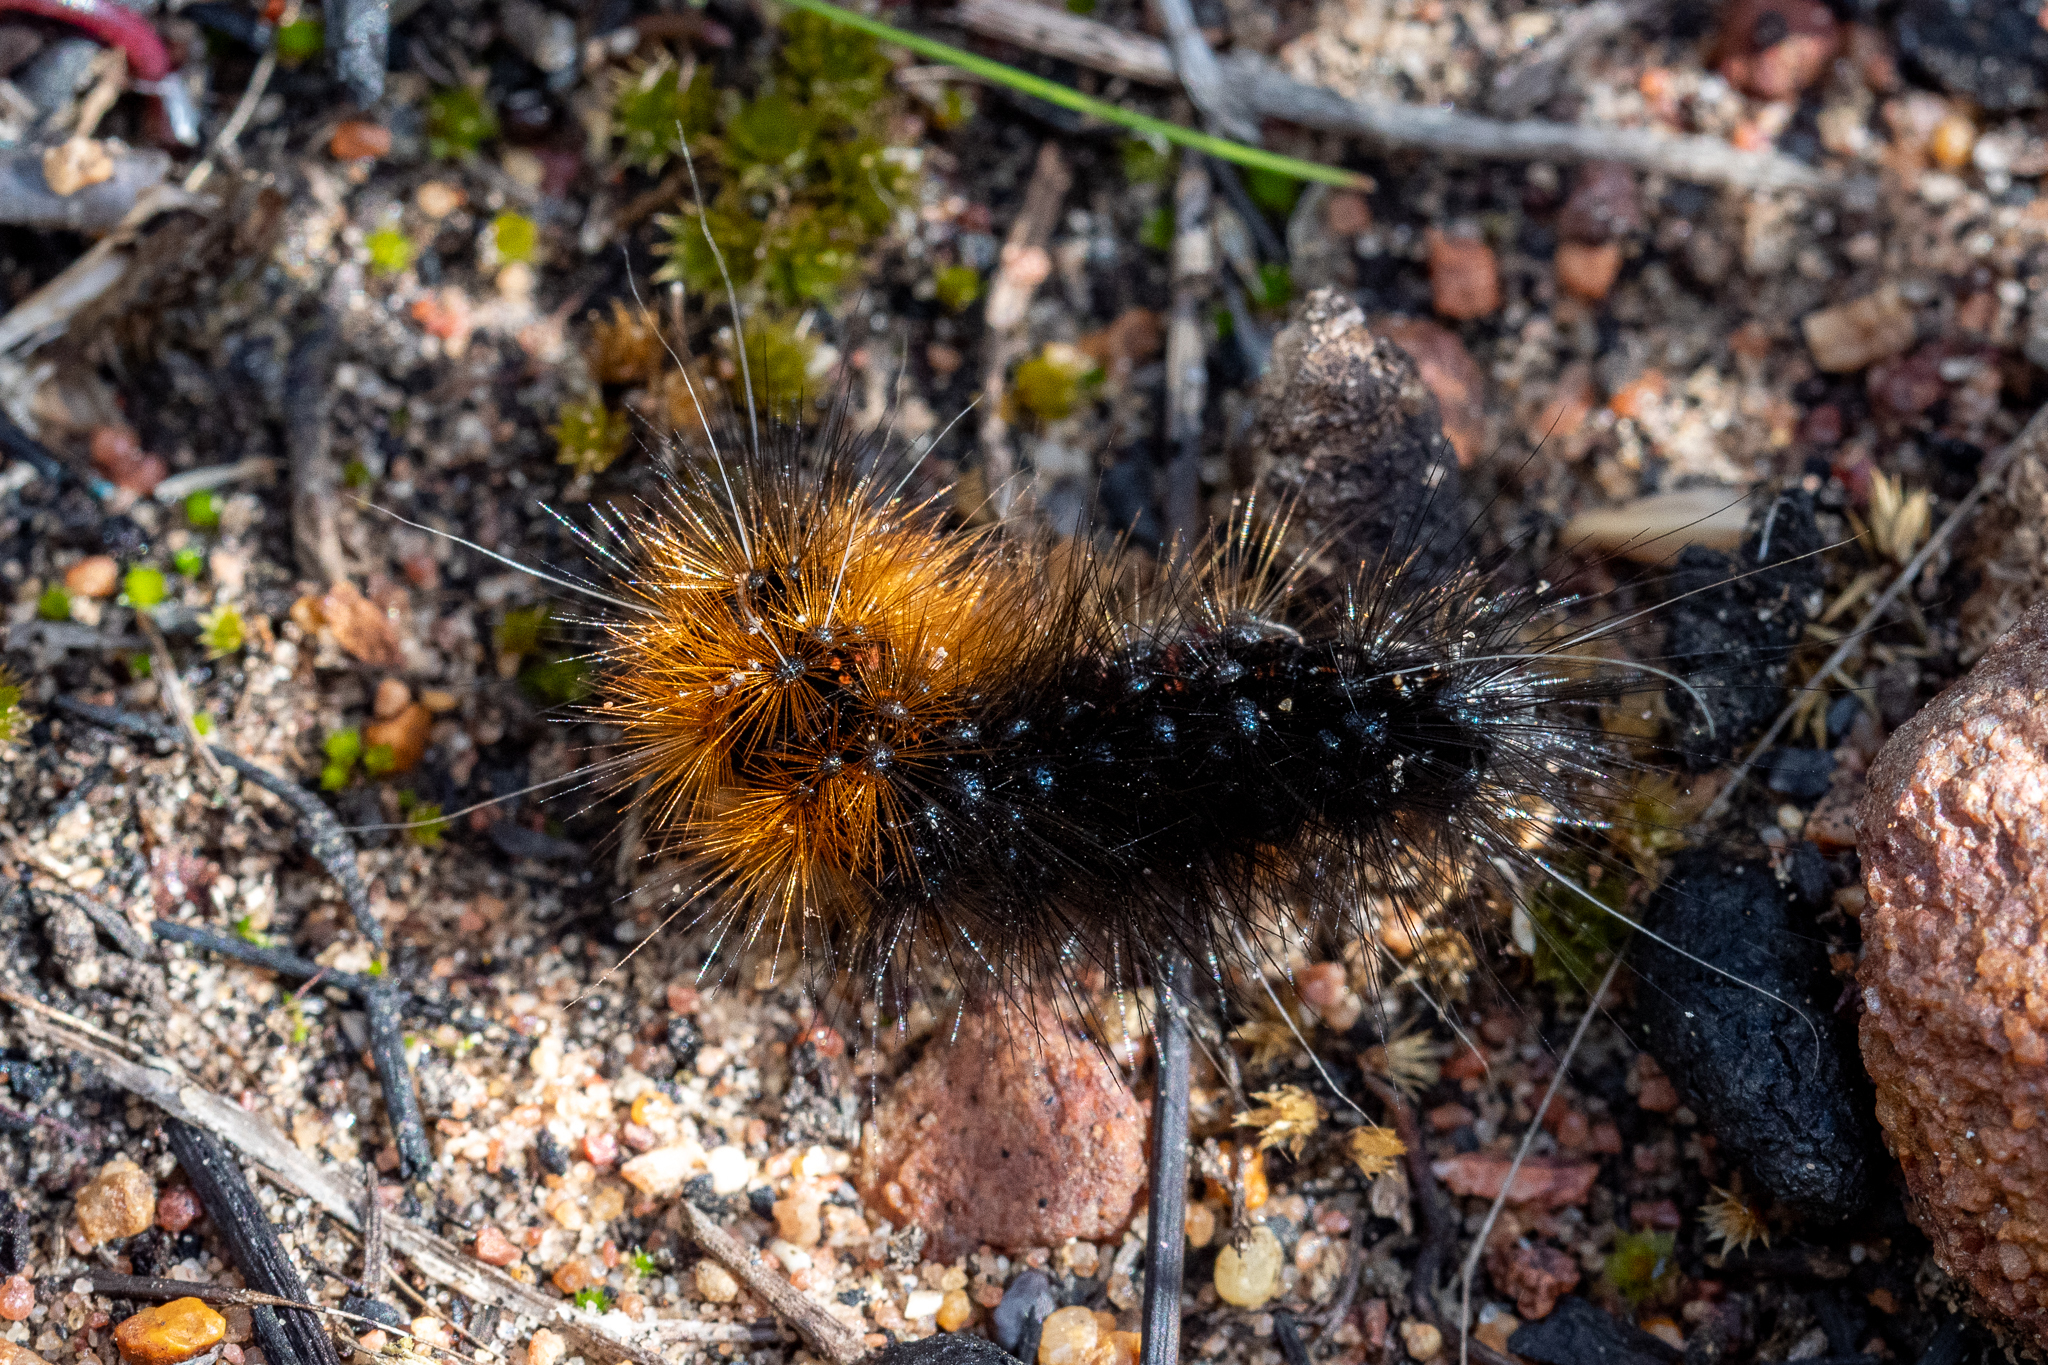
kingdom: Animalia
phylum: Arthropoda
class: Insecta
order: Lepidoptera
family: Erebidae
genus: Rhodogastria
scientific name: Rhodogastria amasis
